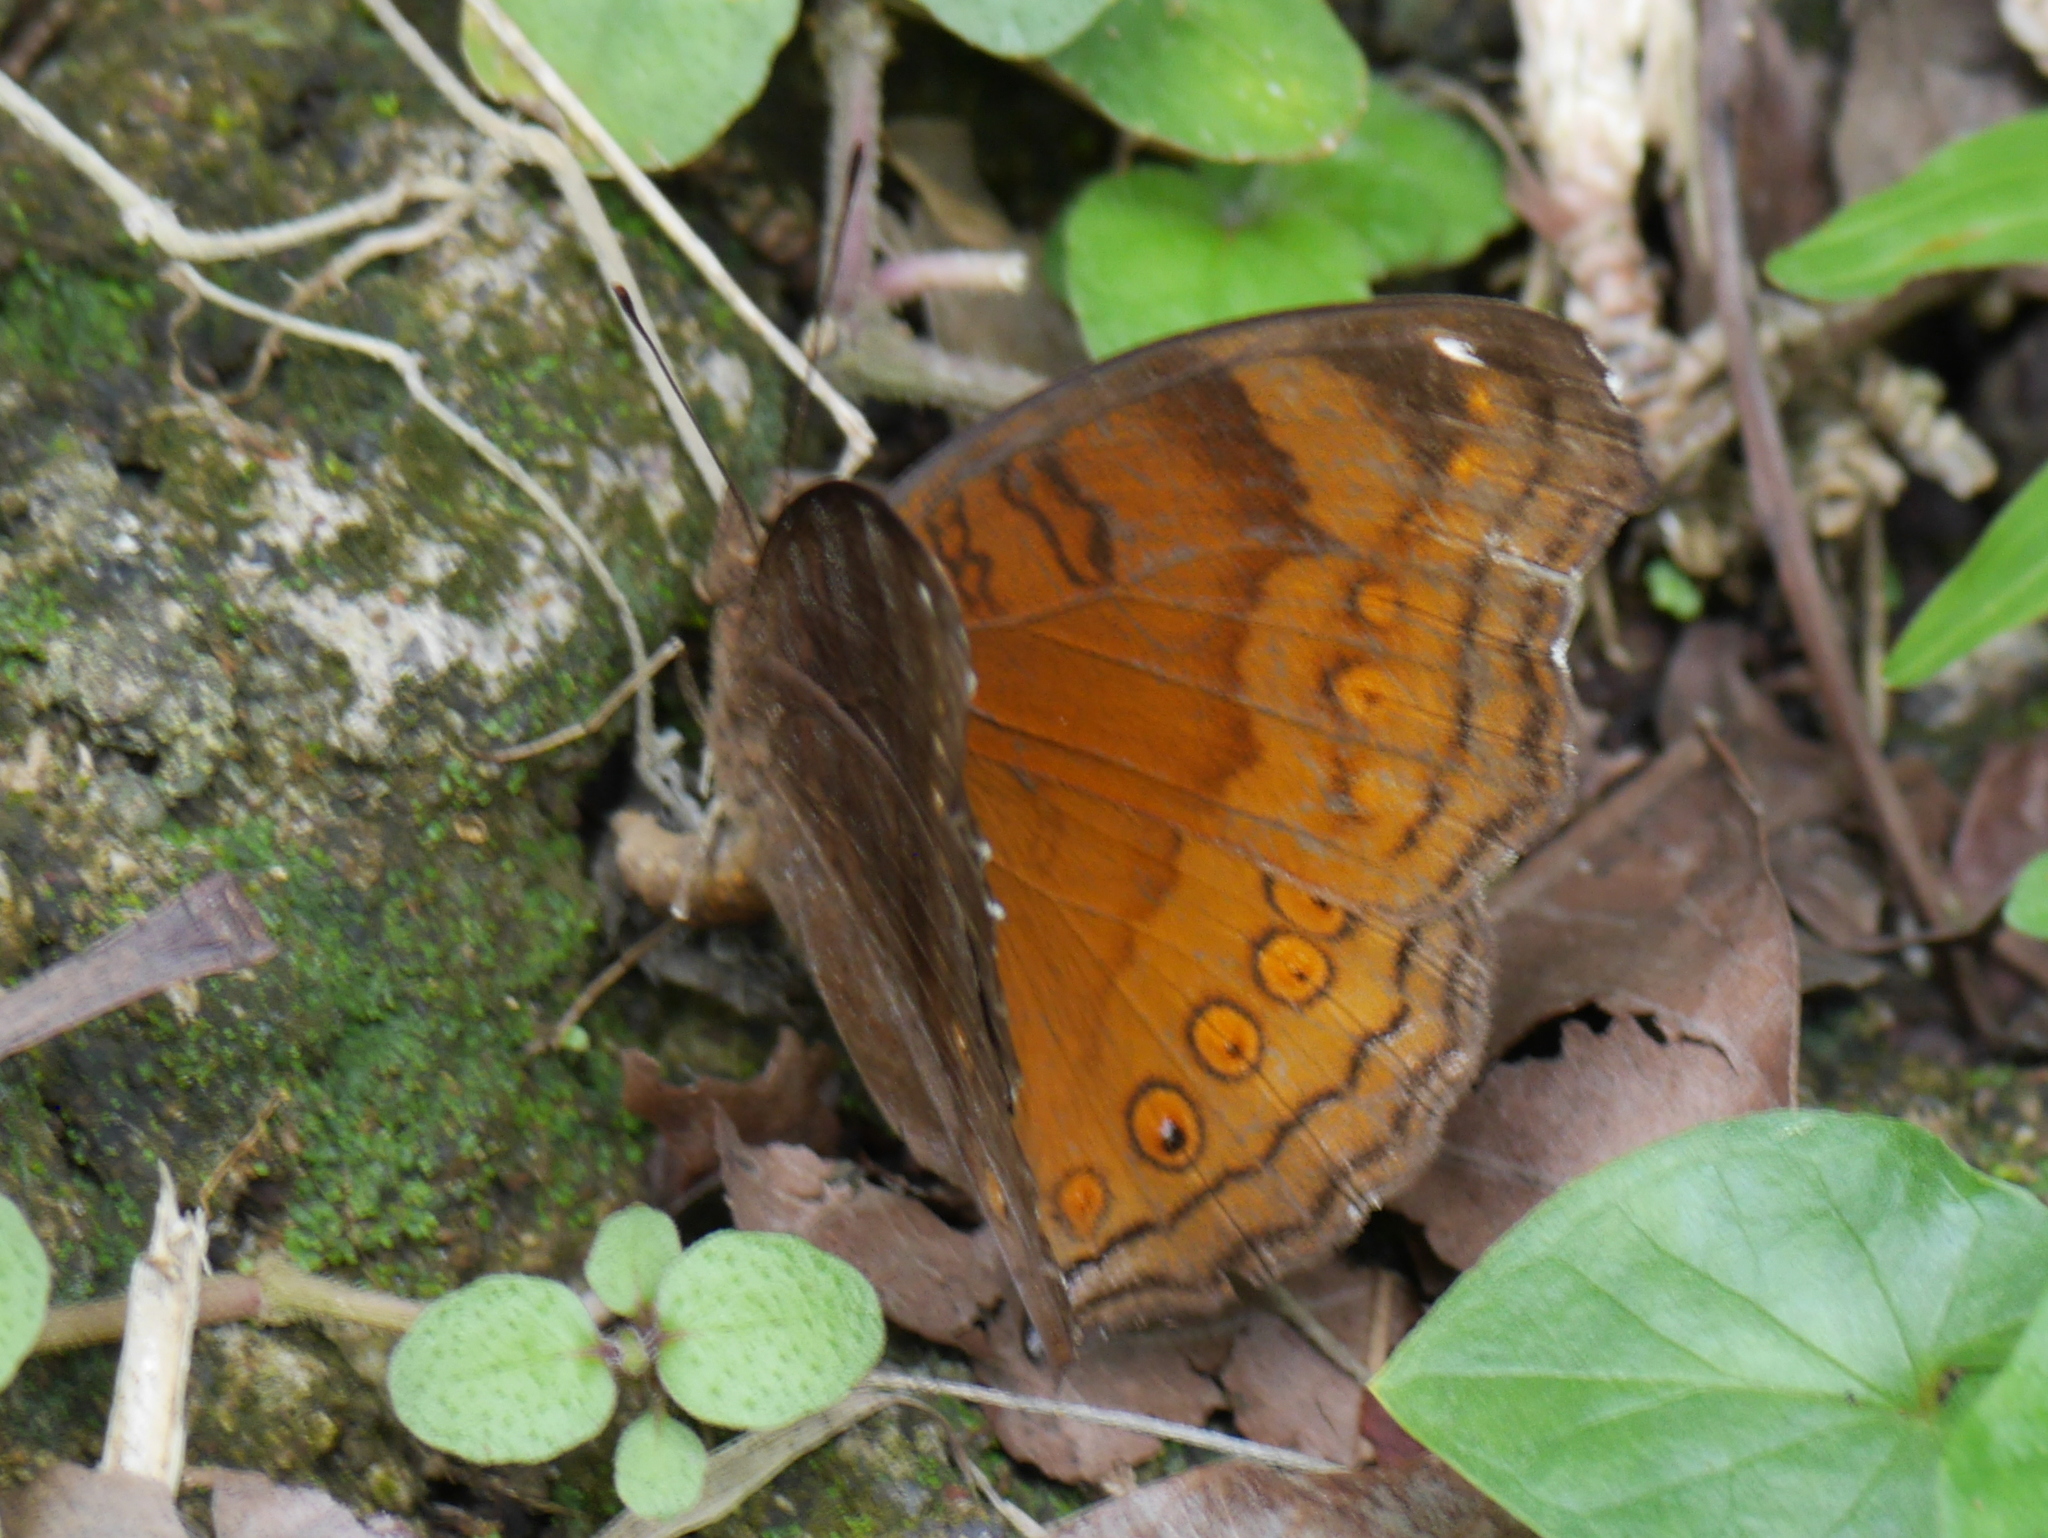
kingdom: Animalia
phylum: Arthropoda
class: Insecta
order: Lepidoptera
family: Nymphalidae
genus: Junonia
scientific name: Junonia hedonia
